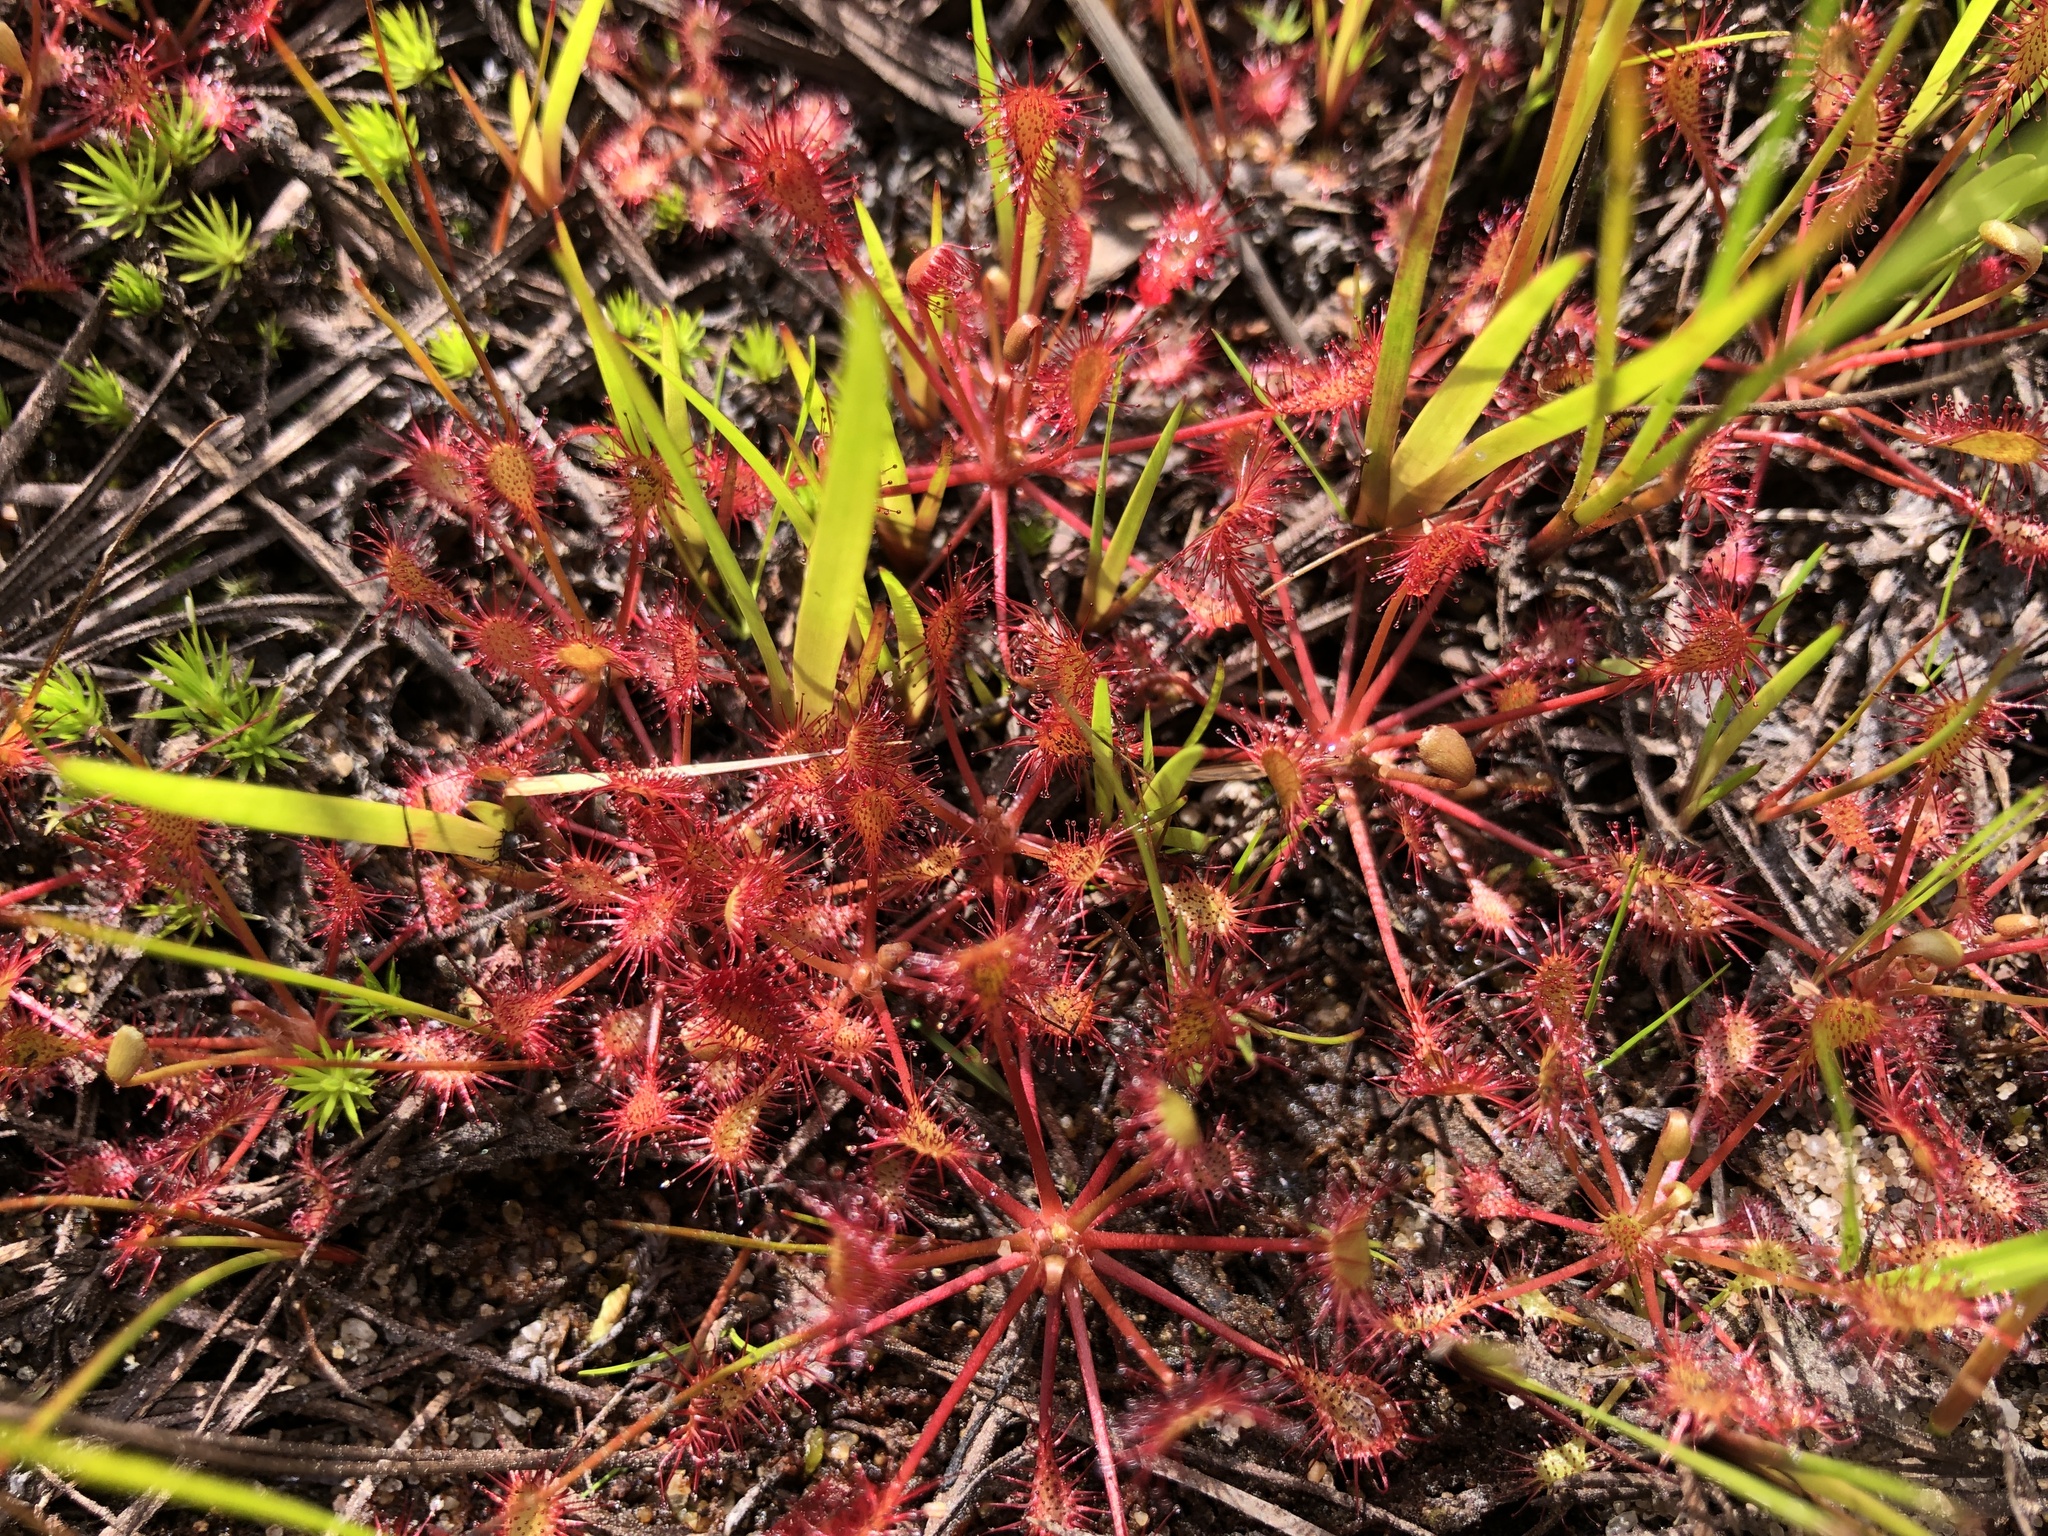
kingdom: Plantae
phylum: Tracheophyta
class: Magnoliopsida
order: Caryophyllales
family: Droseraceae
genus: Drosera
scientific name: Drosera intermedia
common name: Oblong-leaved sundew
